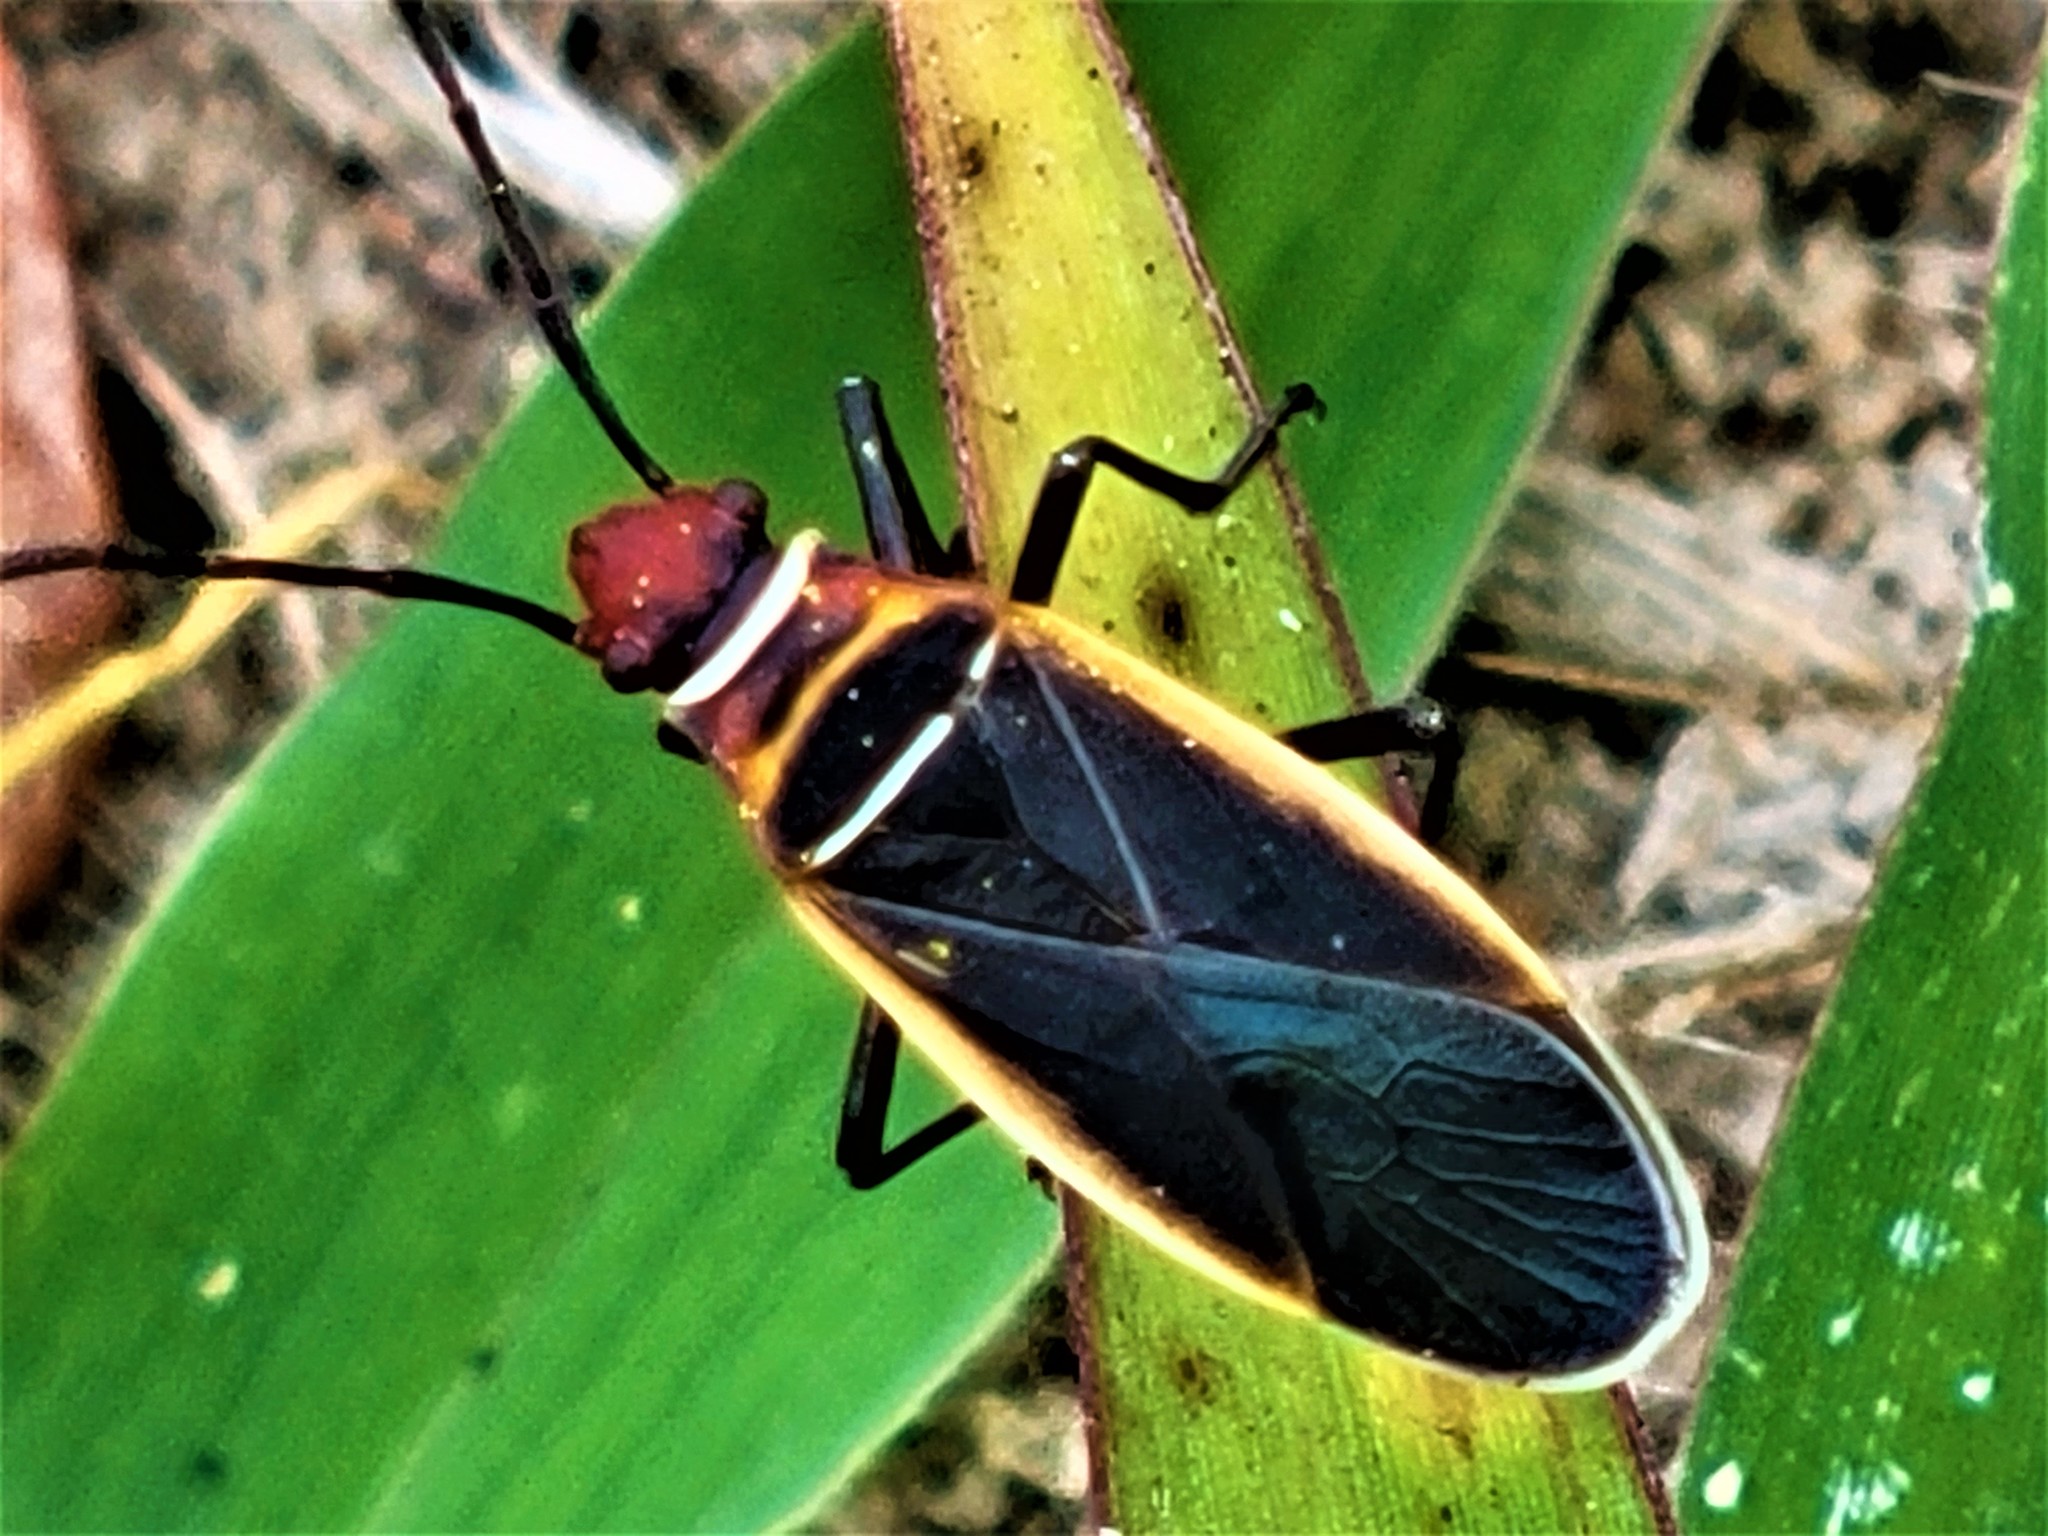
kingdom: Animalia
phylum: Arthropoda
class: Insecta
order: Hemiptera
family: Pyrrhocoridae
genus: Dysdercus
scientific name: Dysdercus mimulus
